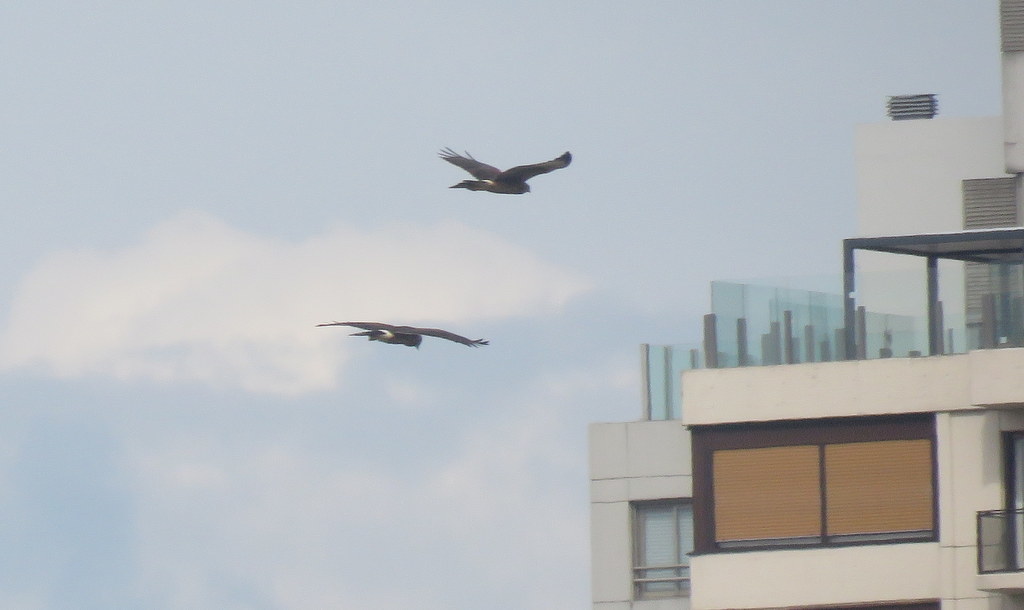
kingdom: Animalia
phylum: Chordata
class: Aves
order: Accipitriformes
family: Accipitridae
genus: Parabuteo
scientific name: Parabuteo unicinctus
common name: Harris's hawk
